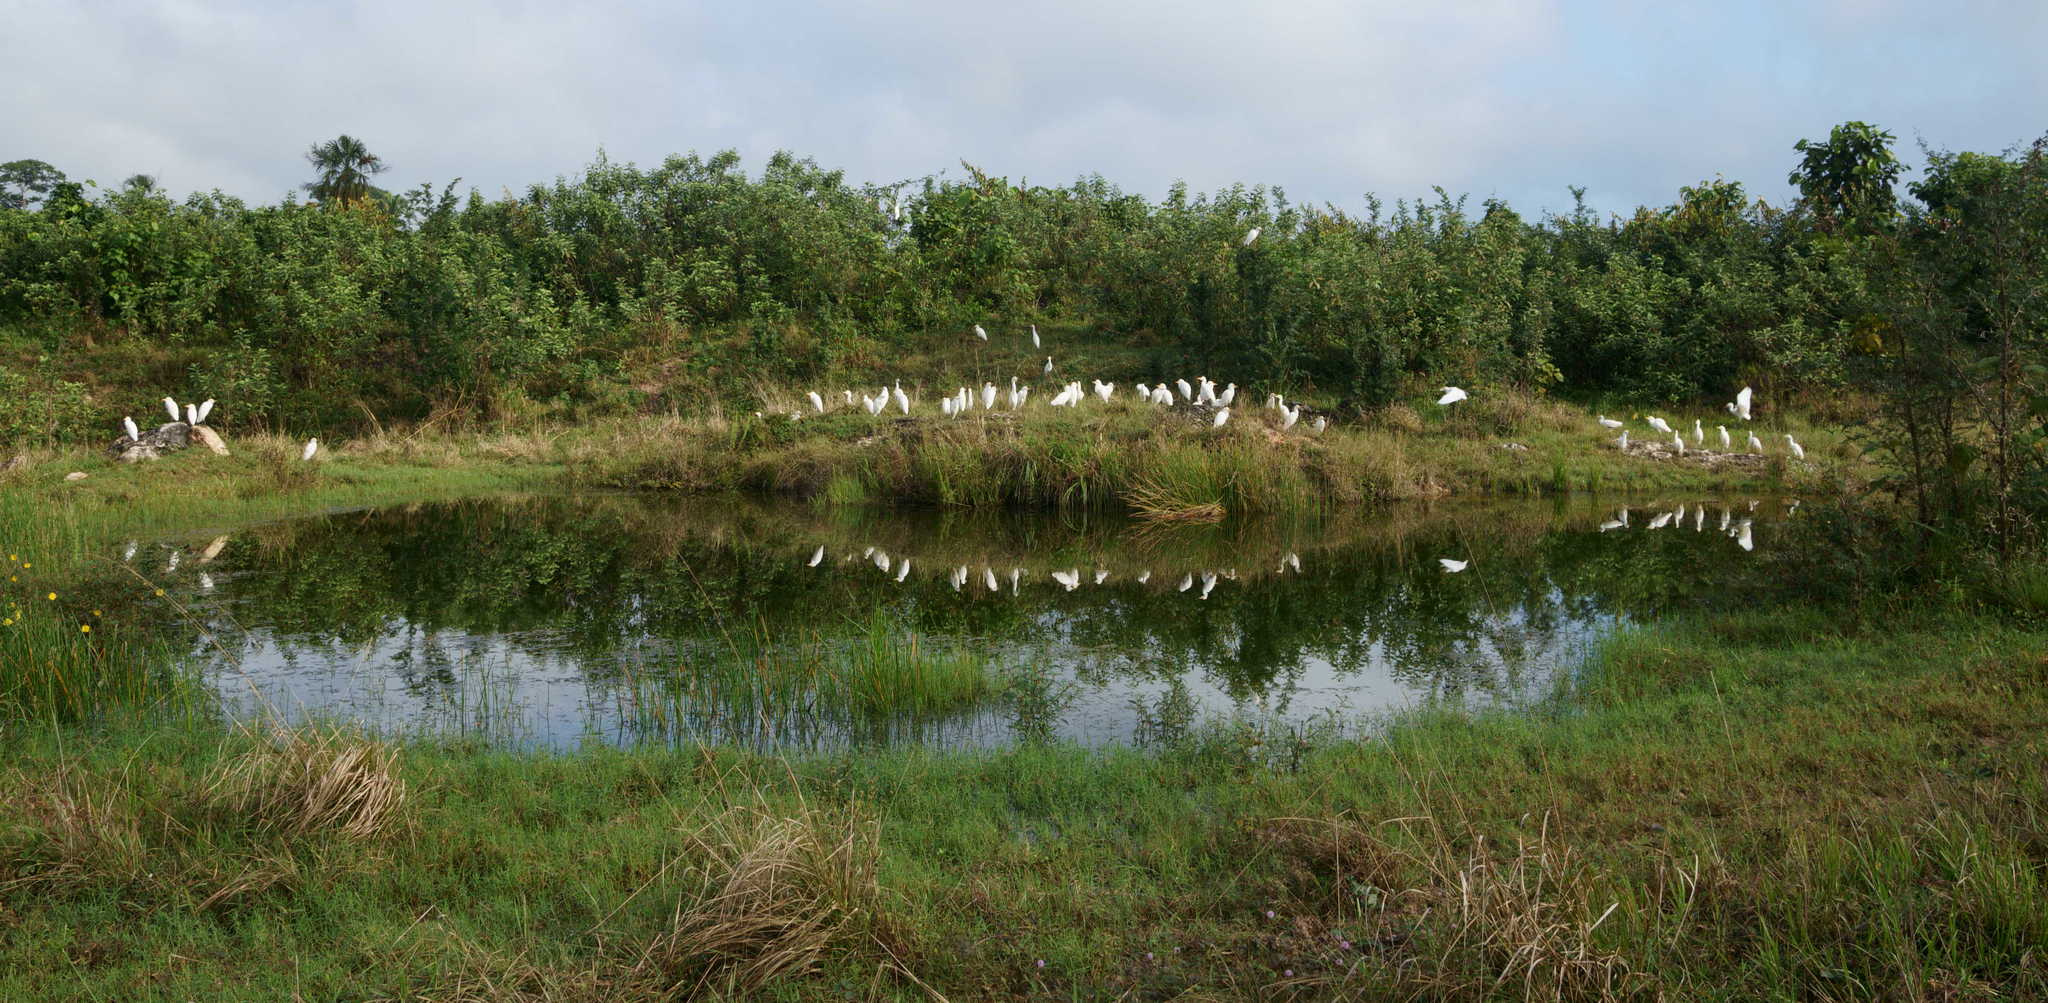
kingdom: Animalia
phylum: Chordata
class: Aves
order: Pelecaniformes
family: Ardeidae
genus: Bubulcus
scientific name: Bubulcus ibis
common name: Cattle egret
